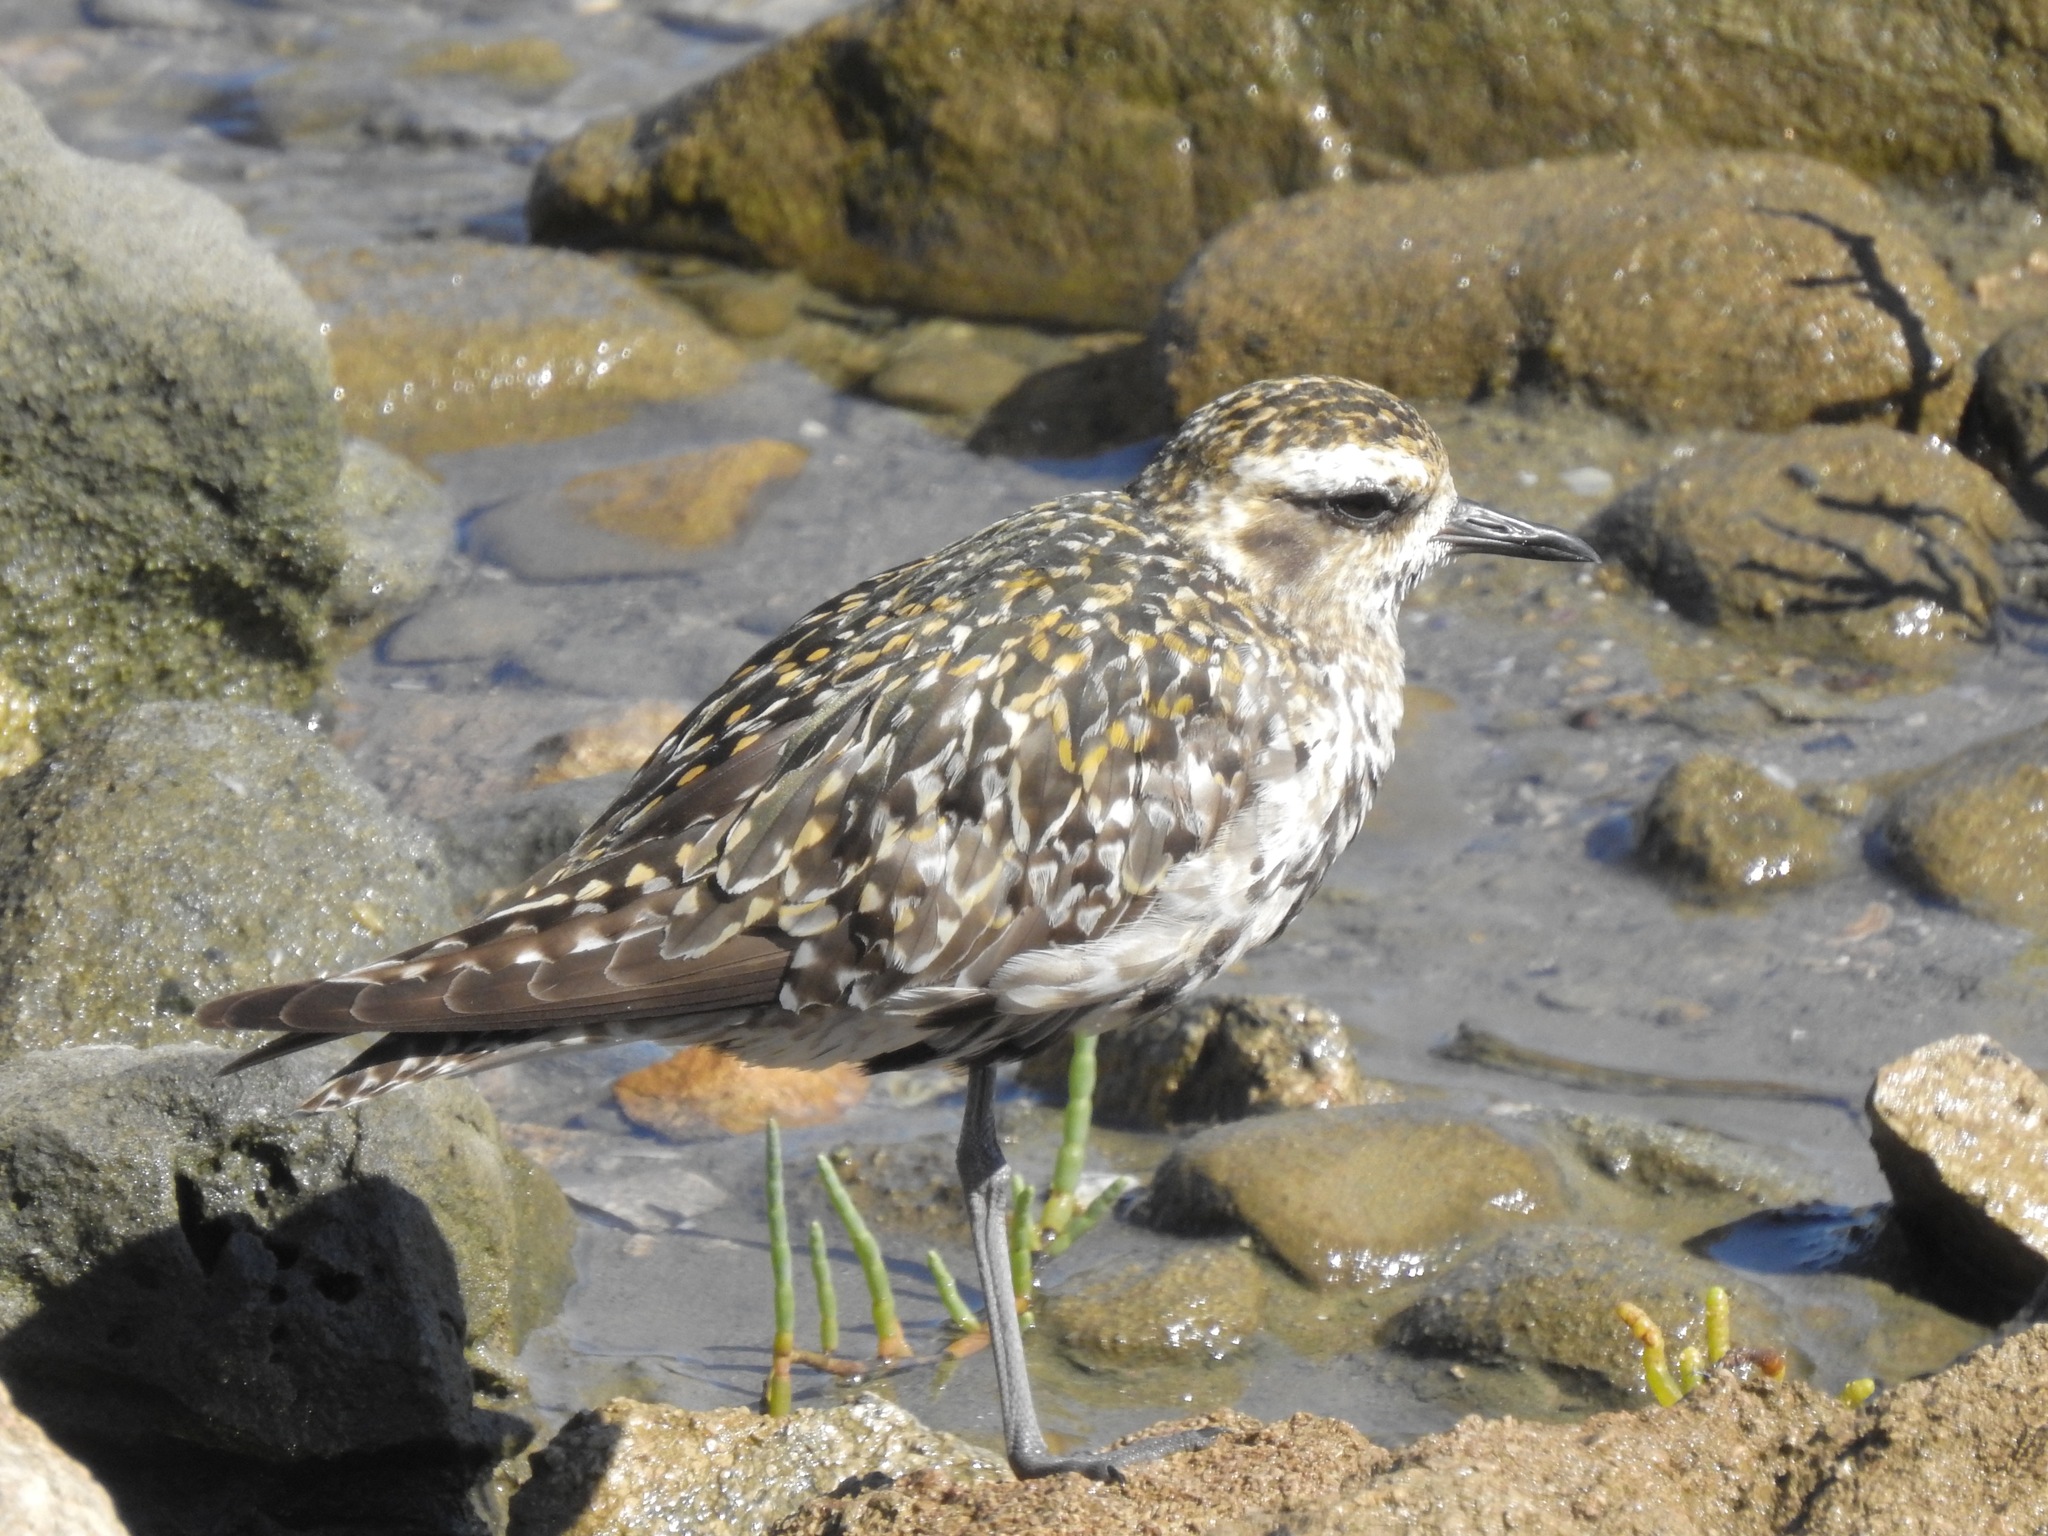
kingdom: Animalia
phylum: Chordata
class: Aves
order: Charadriiformes
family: Charadriidae
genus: Pluvialis
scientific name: Pluvialis fulva
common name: Pacific golden plover
